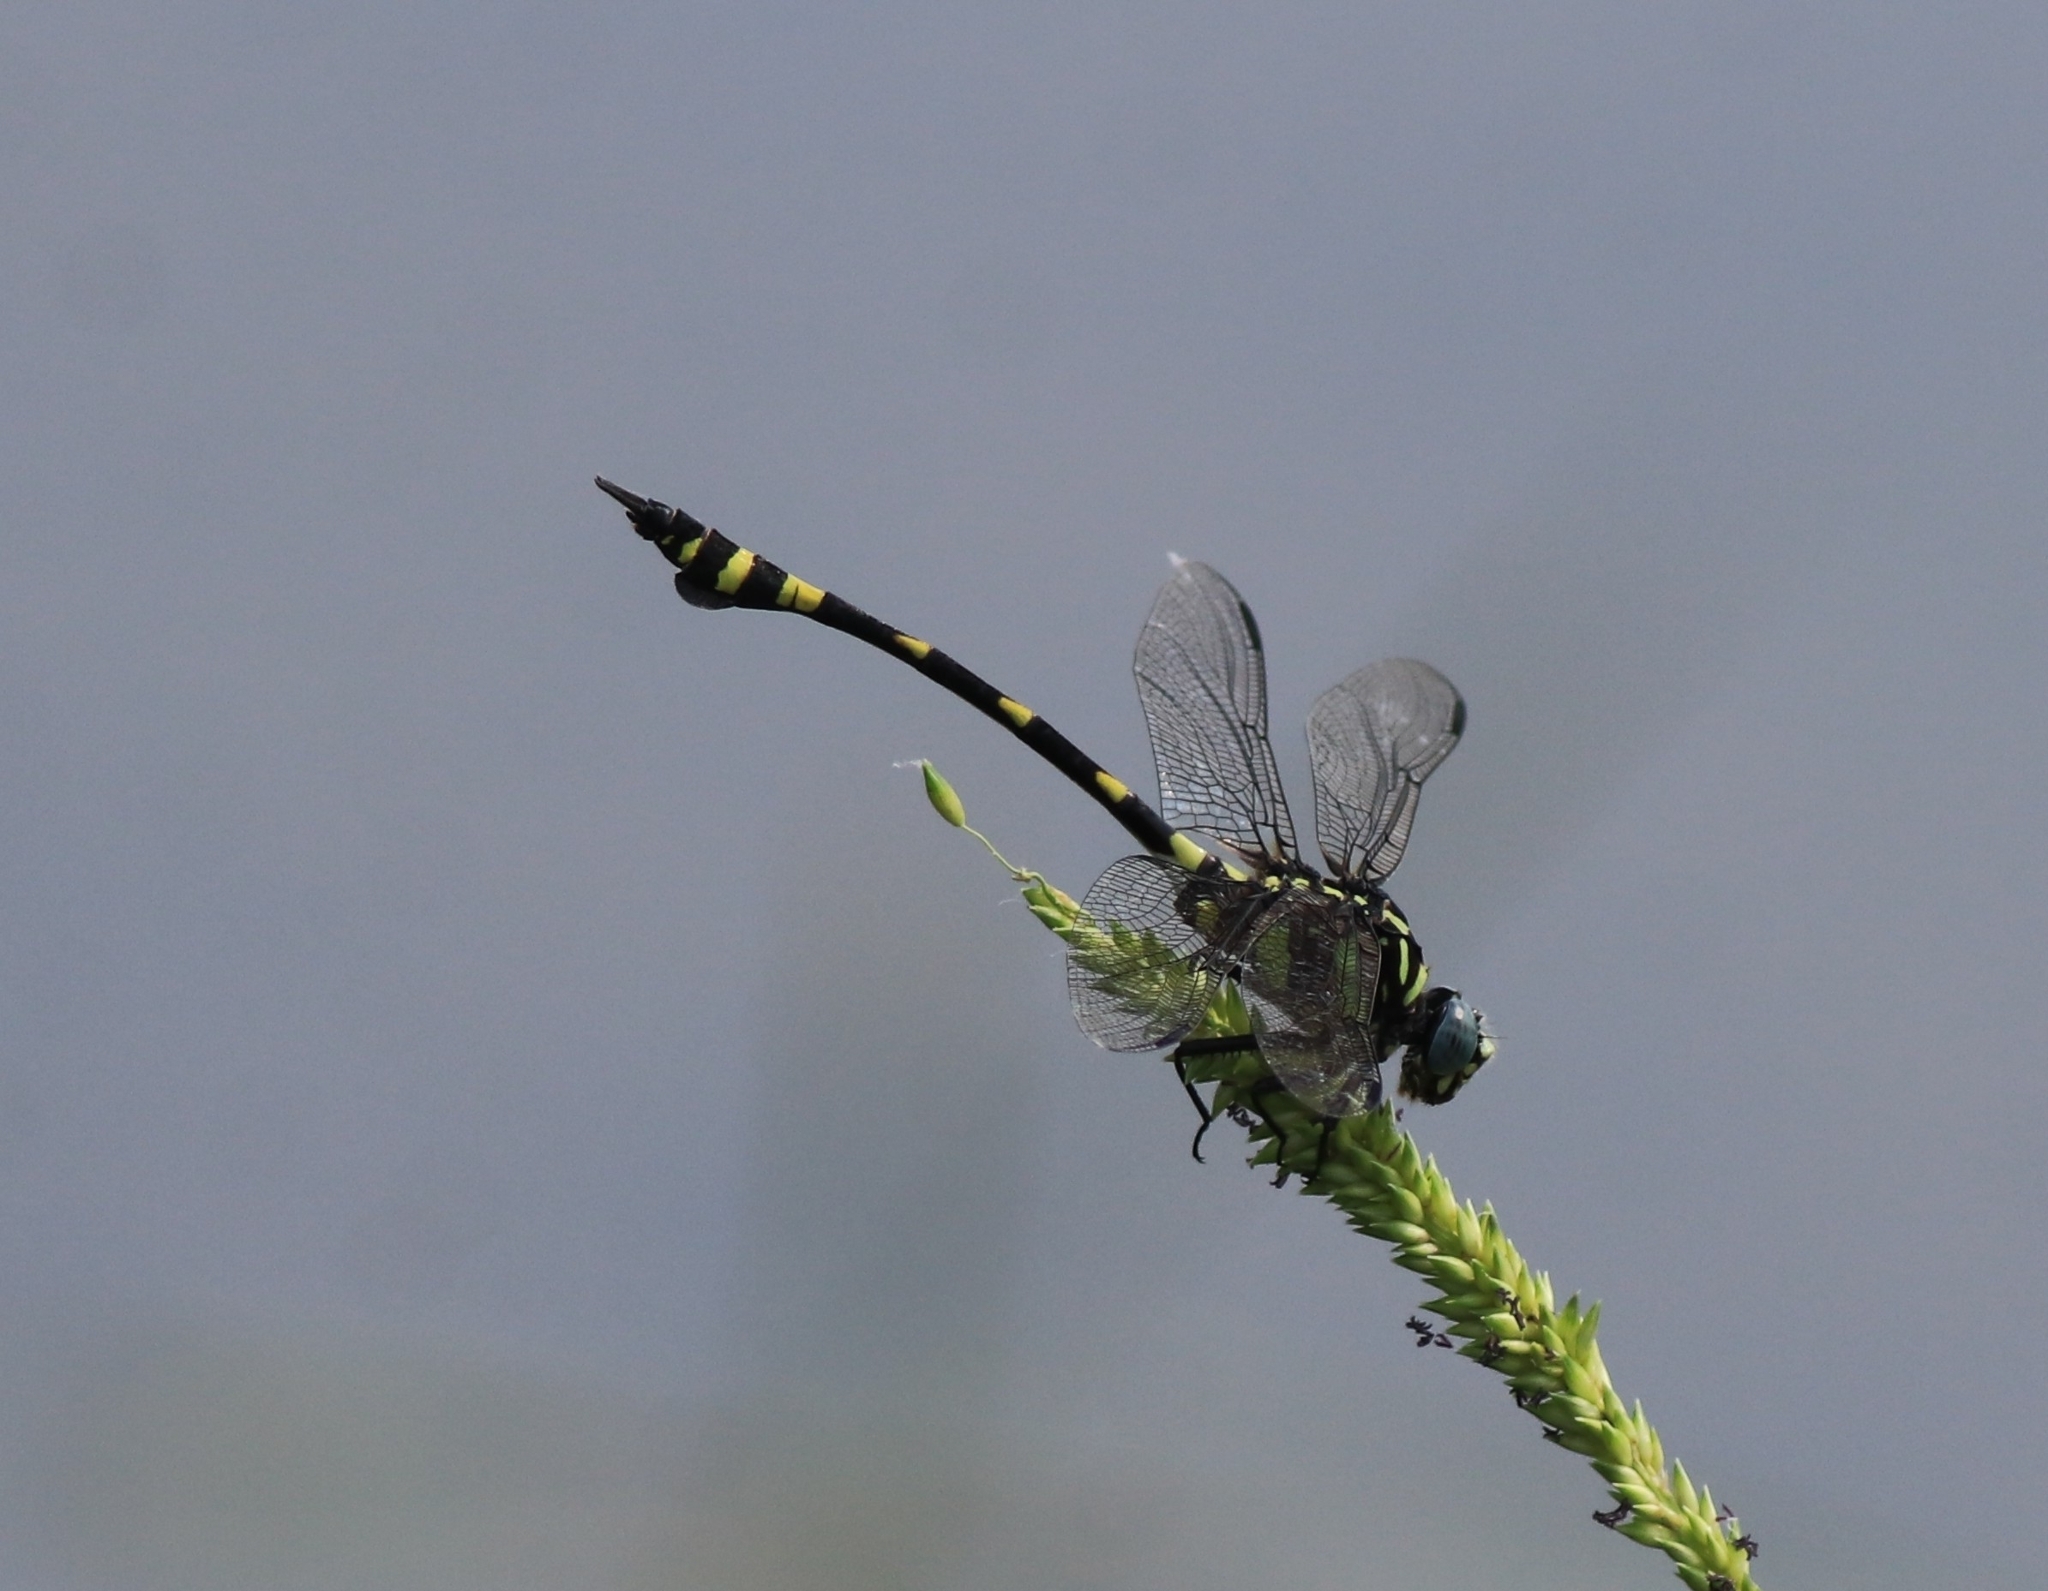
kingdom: Animalia
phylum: Arthropoda
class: Insecta
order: Odonata
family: Gomphidae
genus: Ictinogomphus
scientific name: Ictinogomphus rapax
